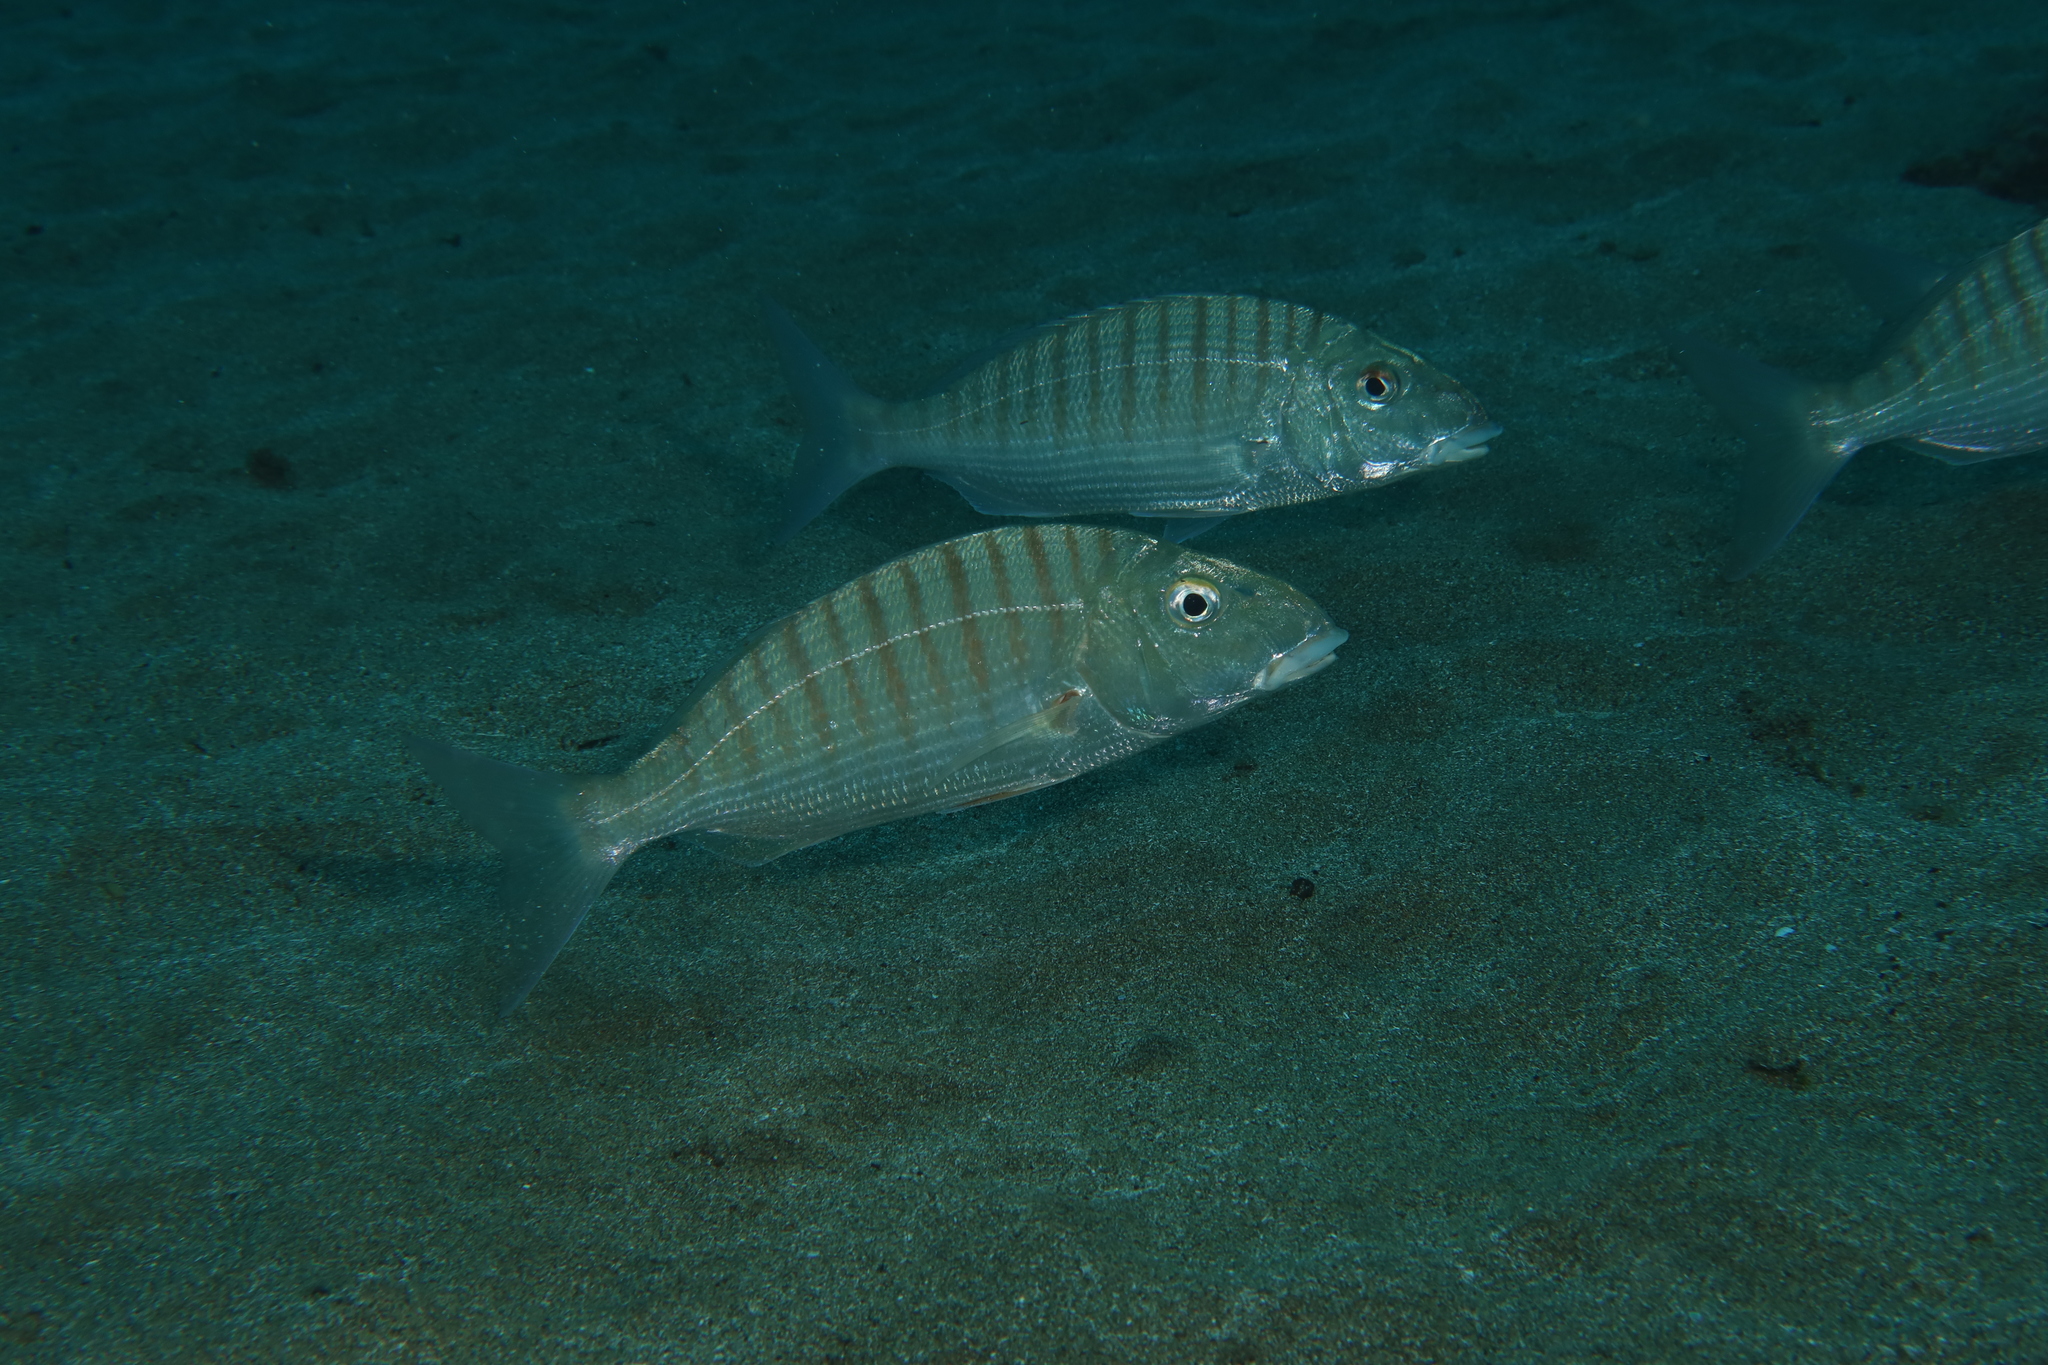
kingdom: Animalia
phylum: Chordata
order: Perciformes
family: Sparidae
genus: Lithognathus
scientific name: Lithognathus mormyrus
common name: Sand steenbras
